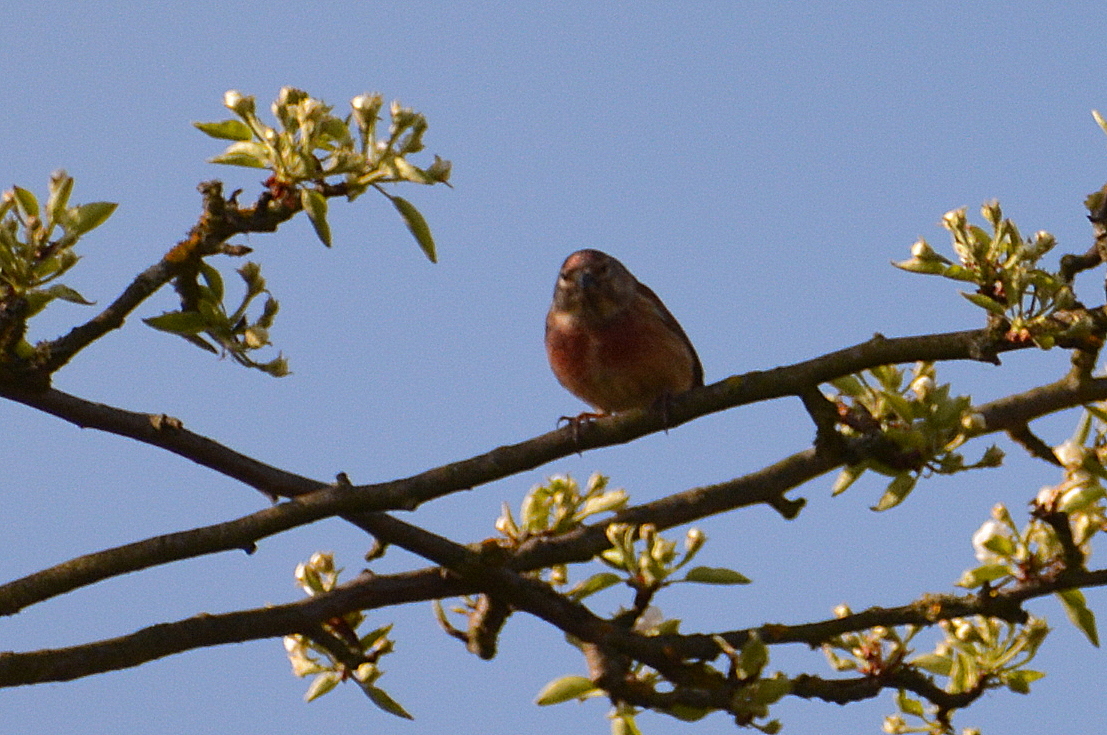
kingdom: Animalia
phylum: Chordata
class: Aves
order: Passeriformes
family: Fringillidae
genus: Linaria
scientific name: Linaria cannabina
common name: Common linnet
